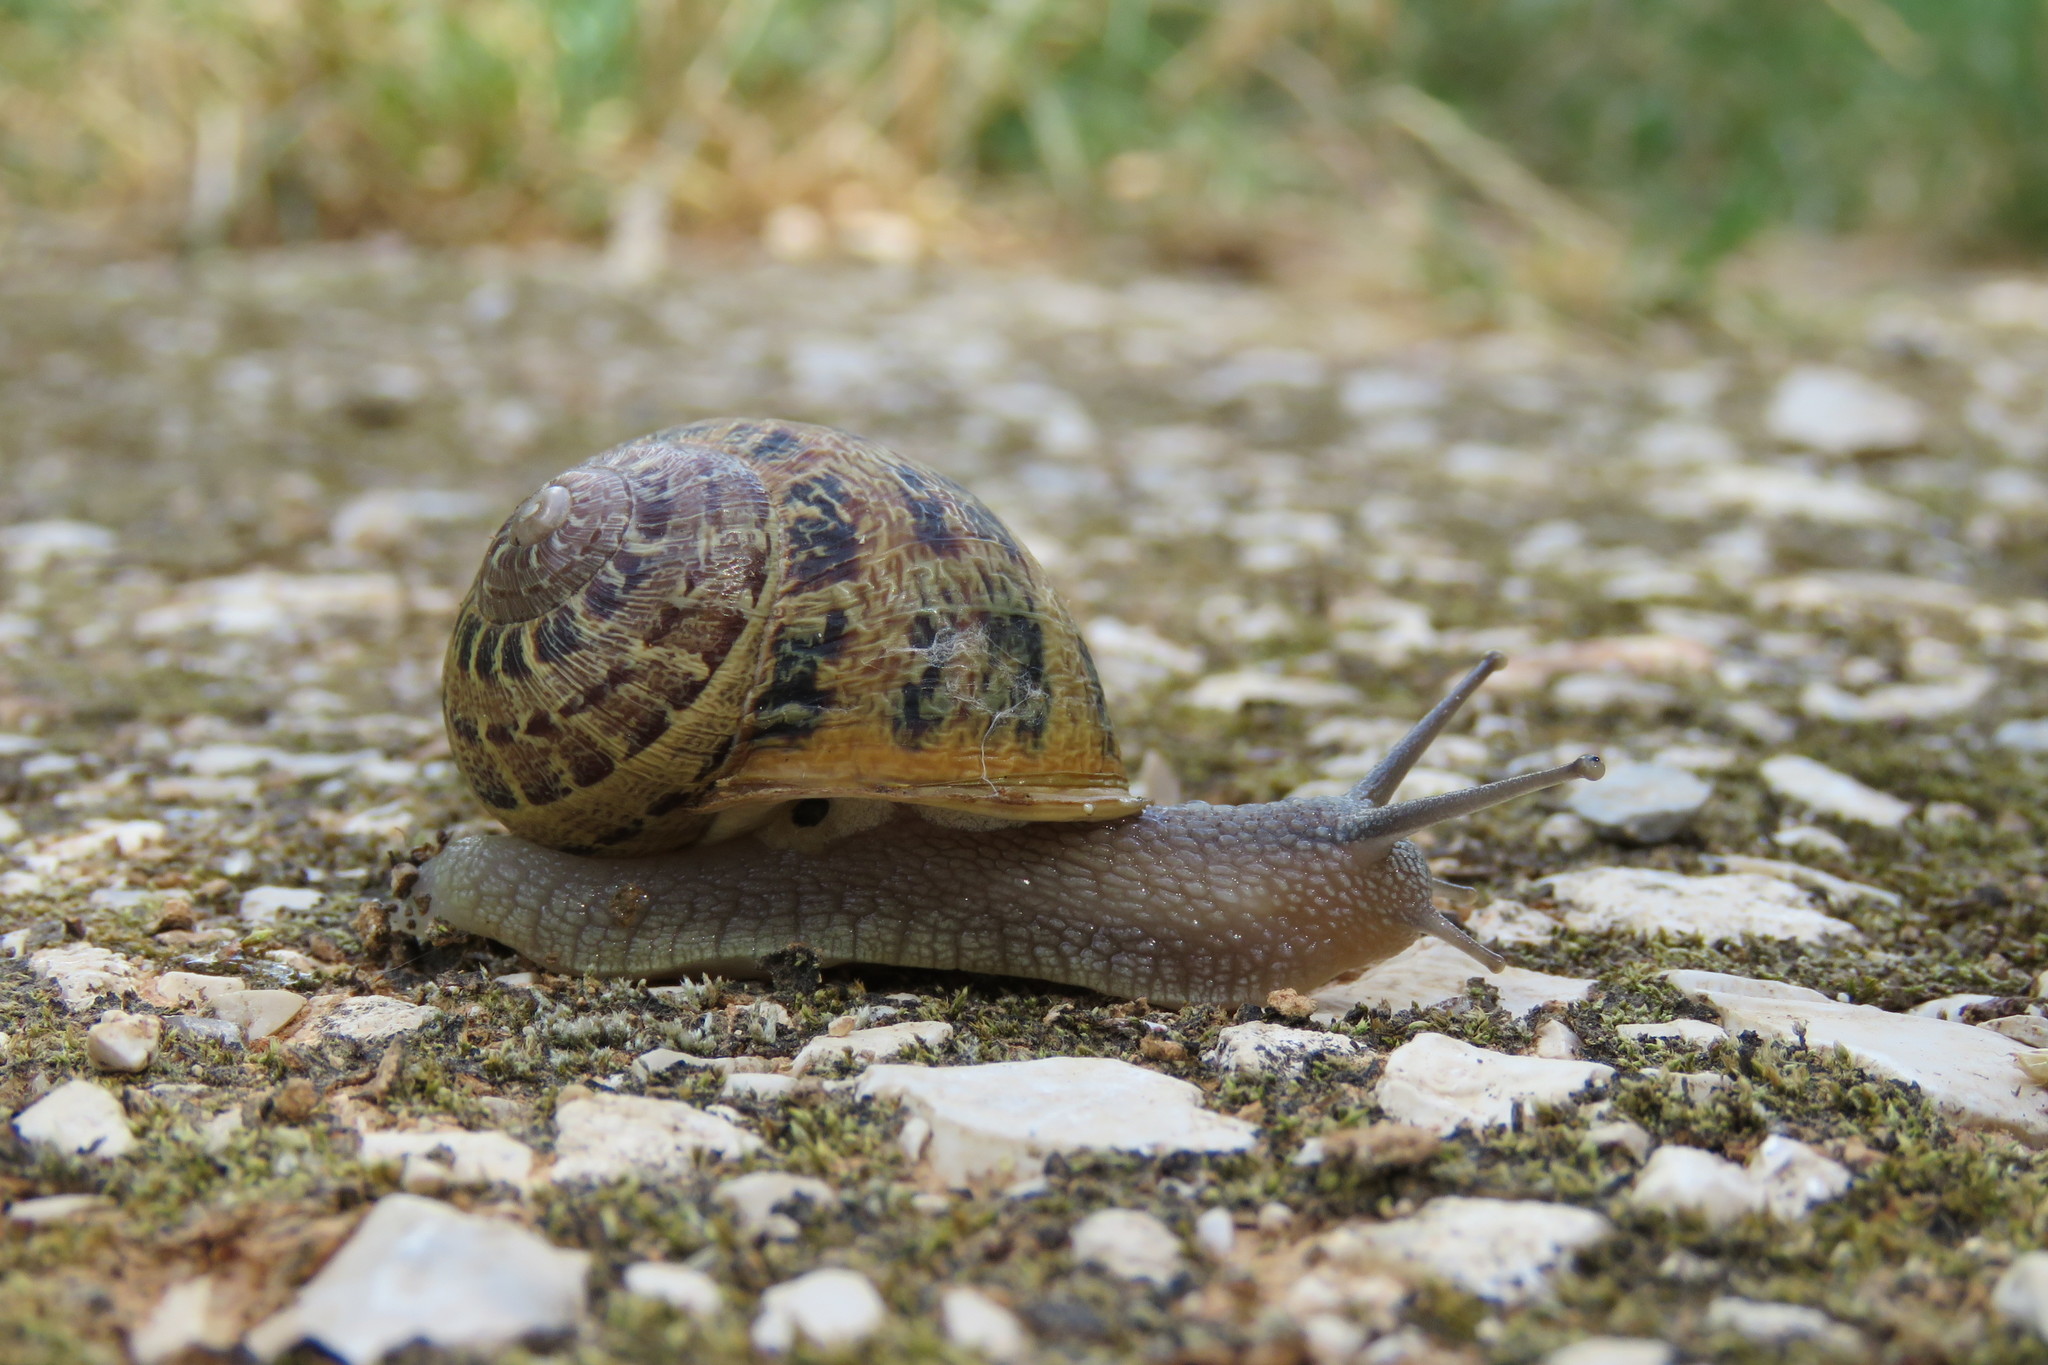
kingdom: Animalia
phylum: Mollusca
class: Gastropoda
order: Stylommatophora
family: Helicidae
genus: Cornu
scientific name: Cornu aspersum
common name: Brown garden snail
